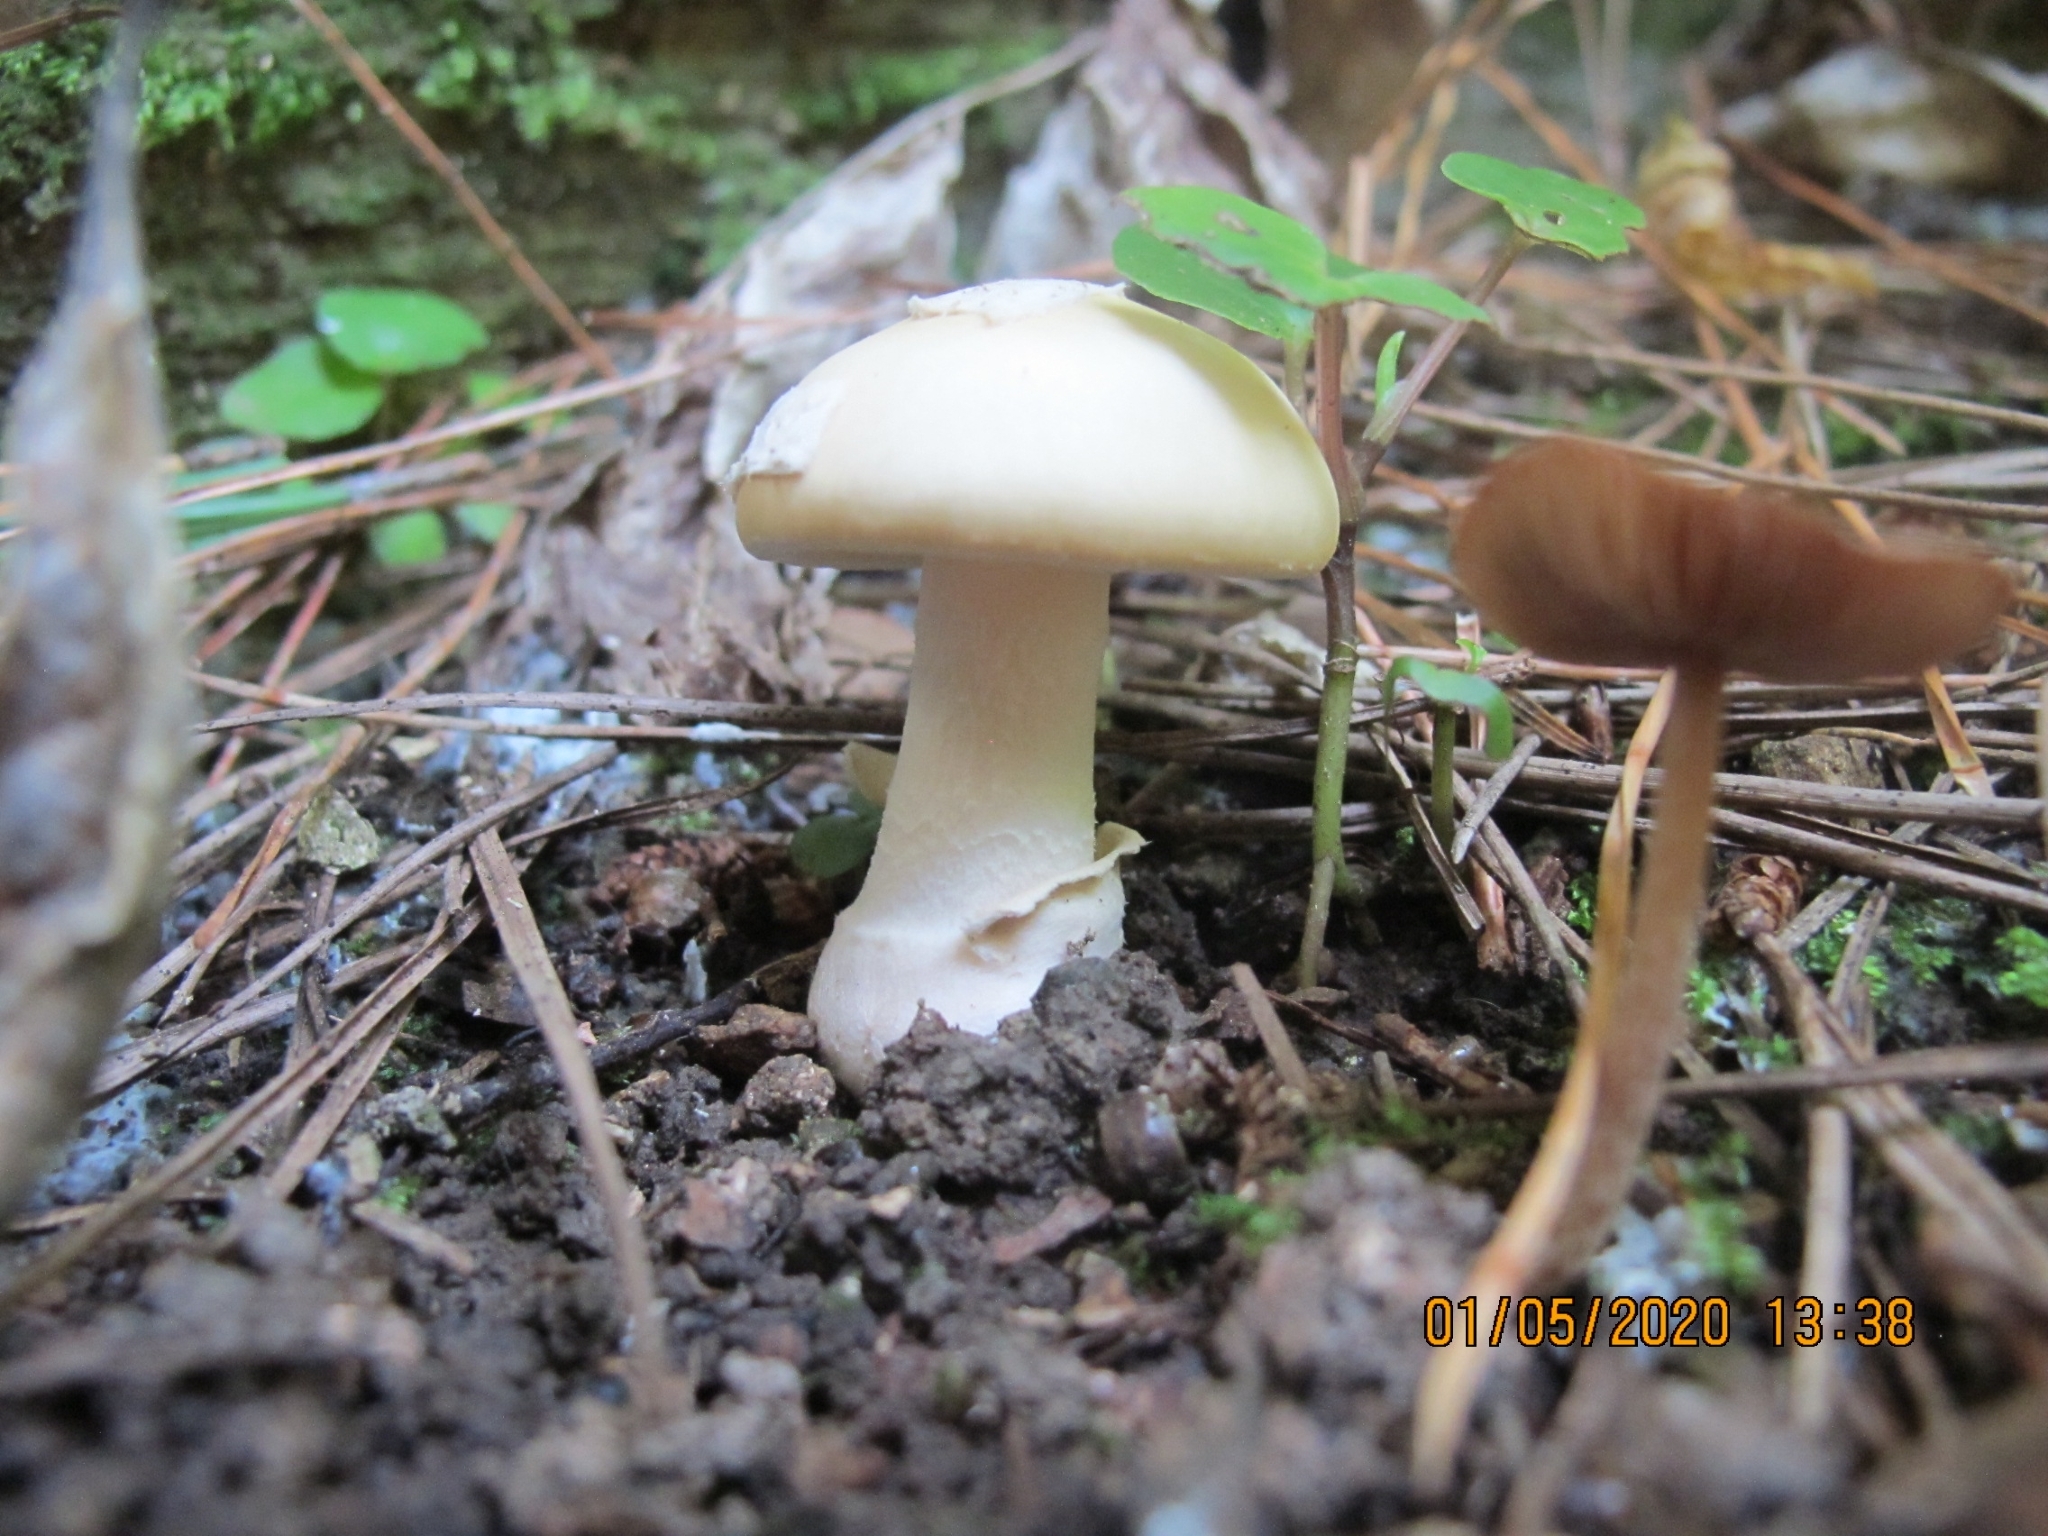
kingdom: Fungi
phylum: Basidiomycota
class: Agaricomycetes
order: Agaricales
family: Amanitaceae
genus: Amanita
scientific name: Amanita gemmata
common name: Jewelled amanita
